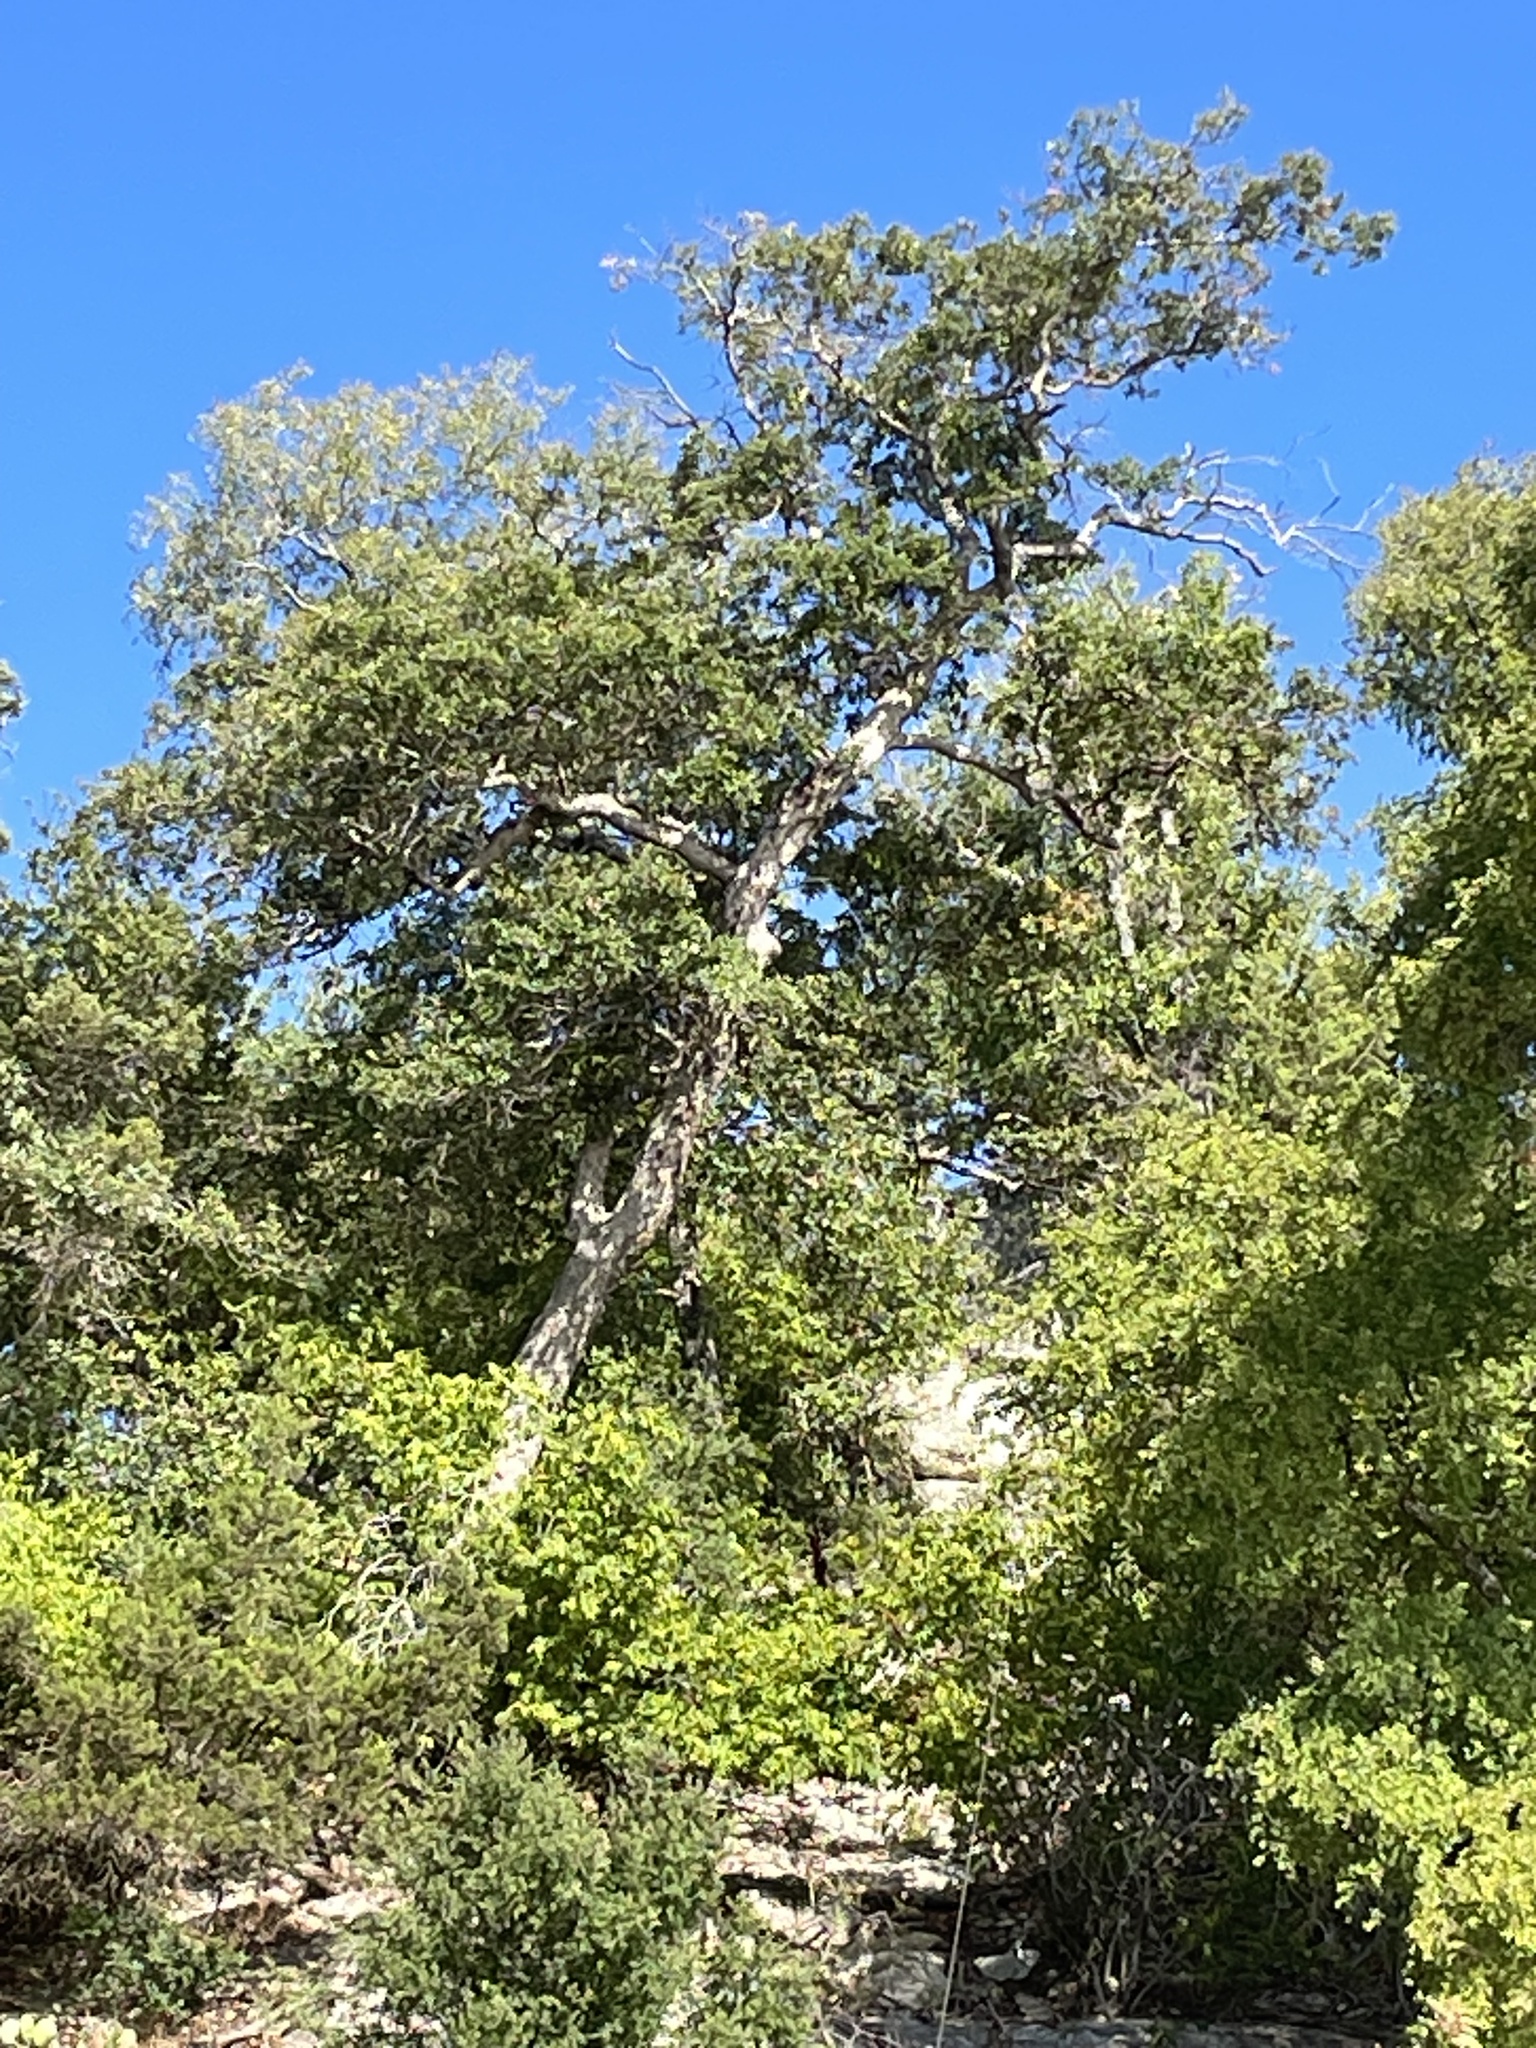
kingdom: Plantae
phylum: Tracheophyta
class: Magnoliopsida
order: Fagales
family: Fagaceae
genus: Quercus
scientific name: Quercus sinuata
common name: Durand oak
